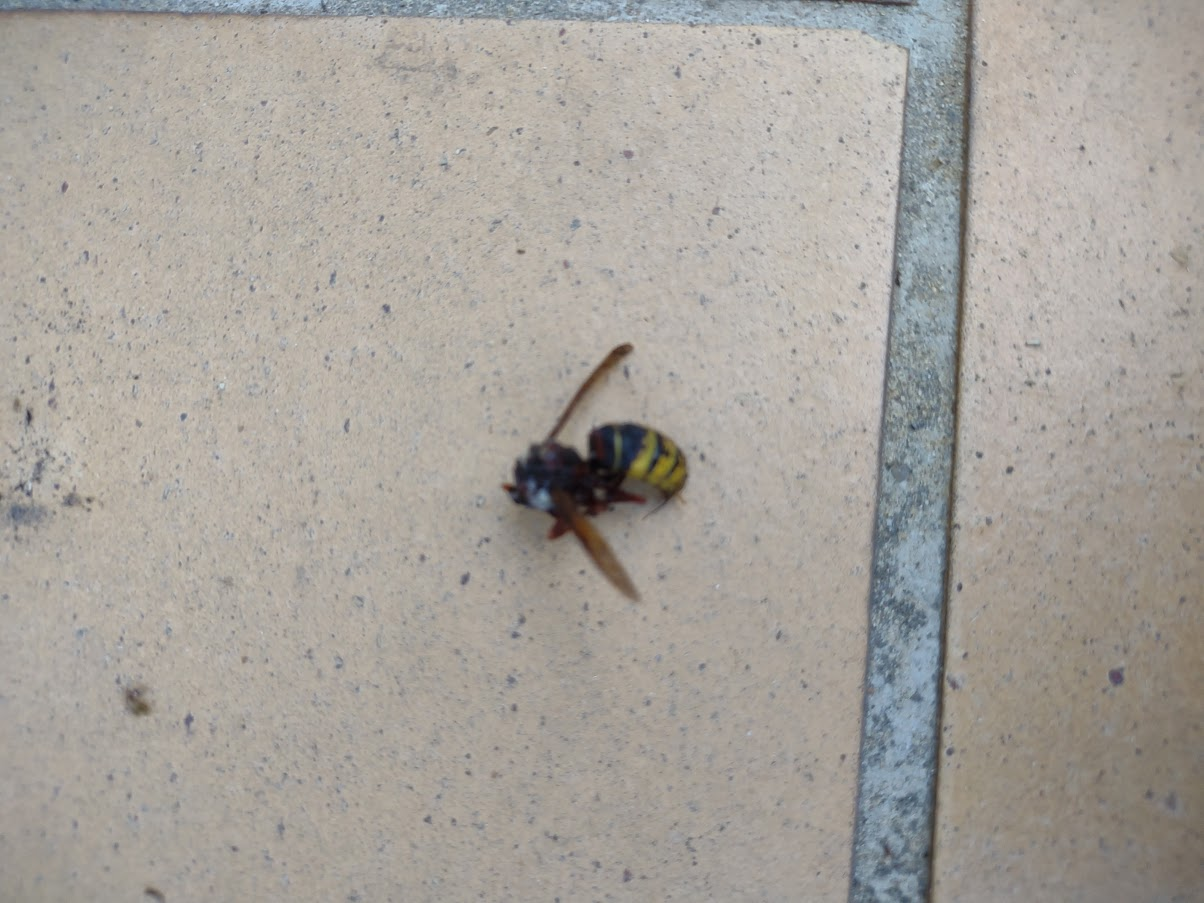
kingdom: Animalia
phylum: Arthropoda
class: Insecta
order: Hymenoptera
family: Vespidae
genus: Vespa
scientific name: Vespa crabro
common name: Hornet
